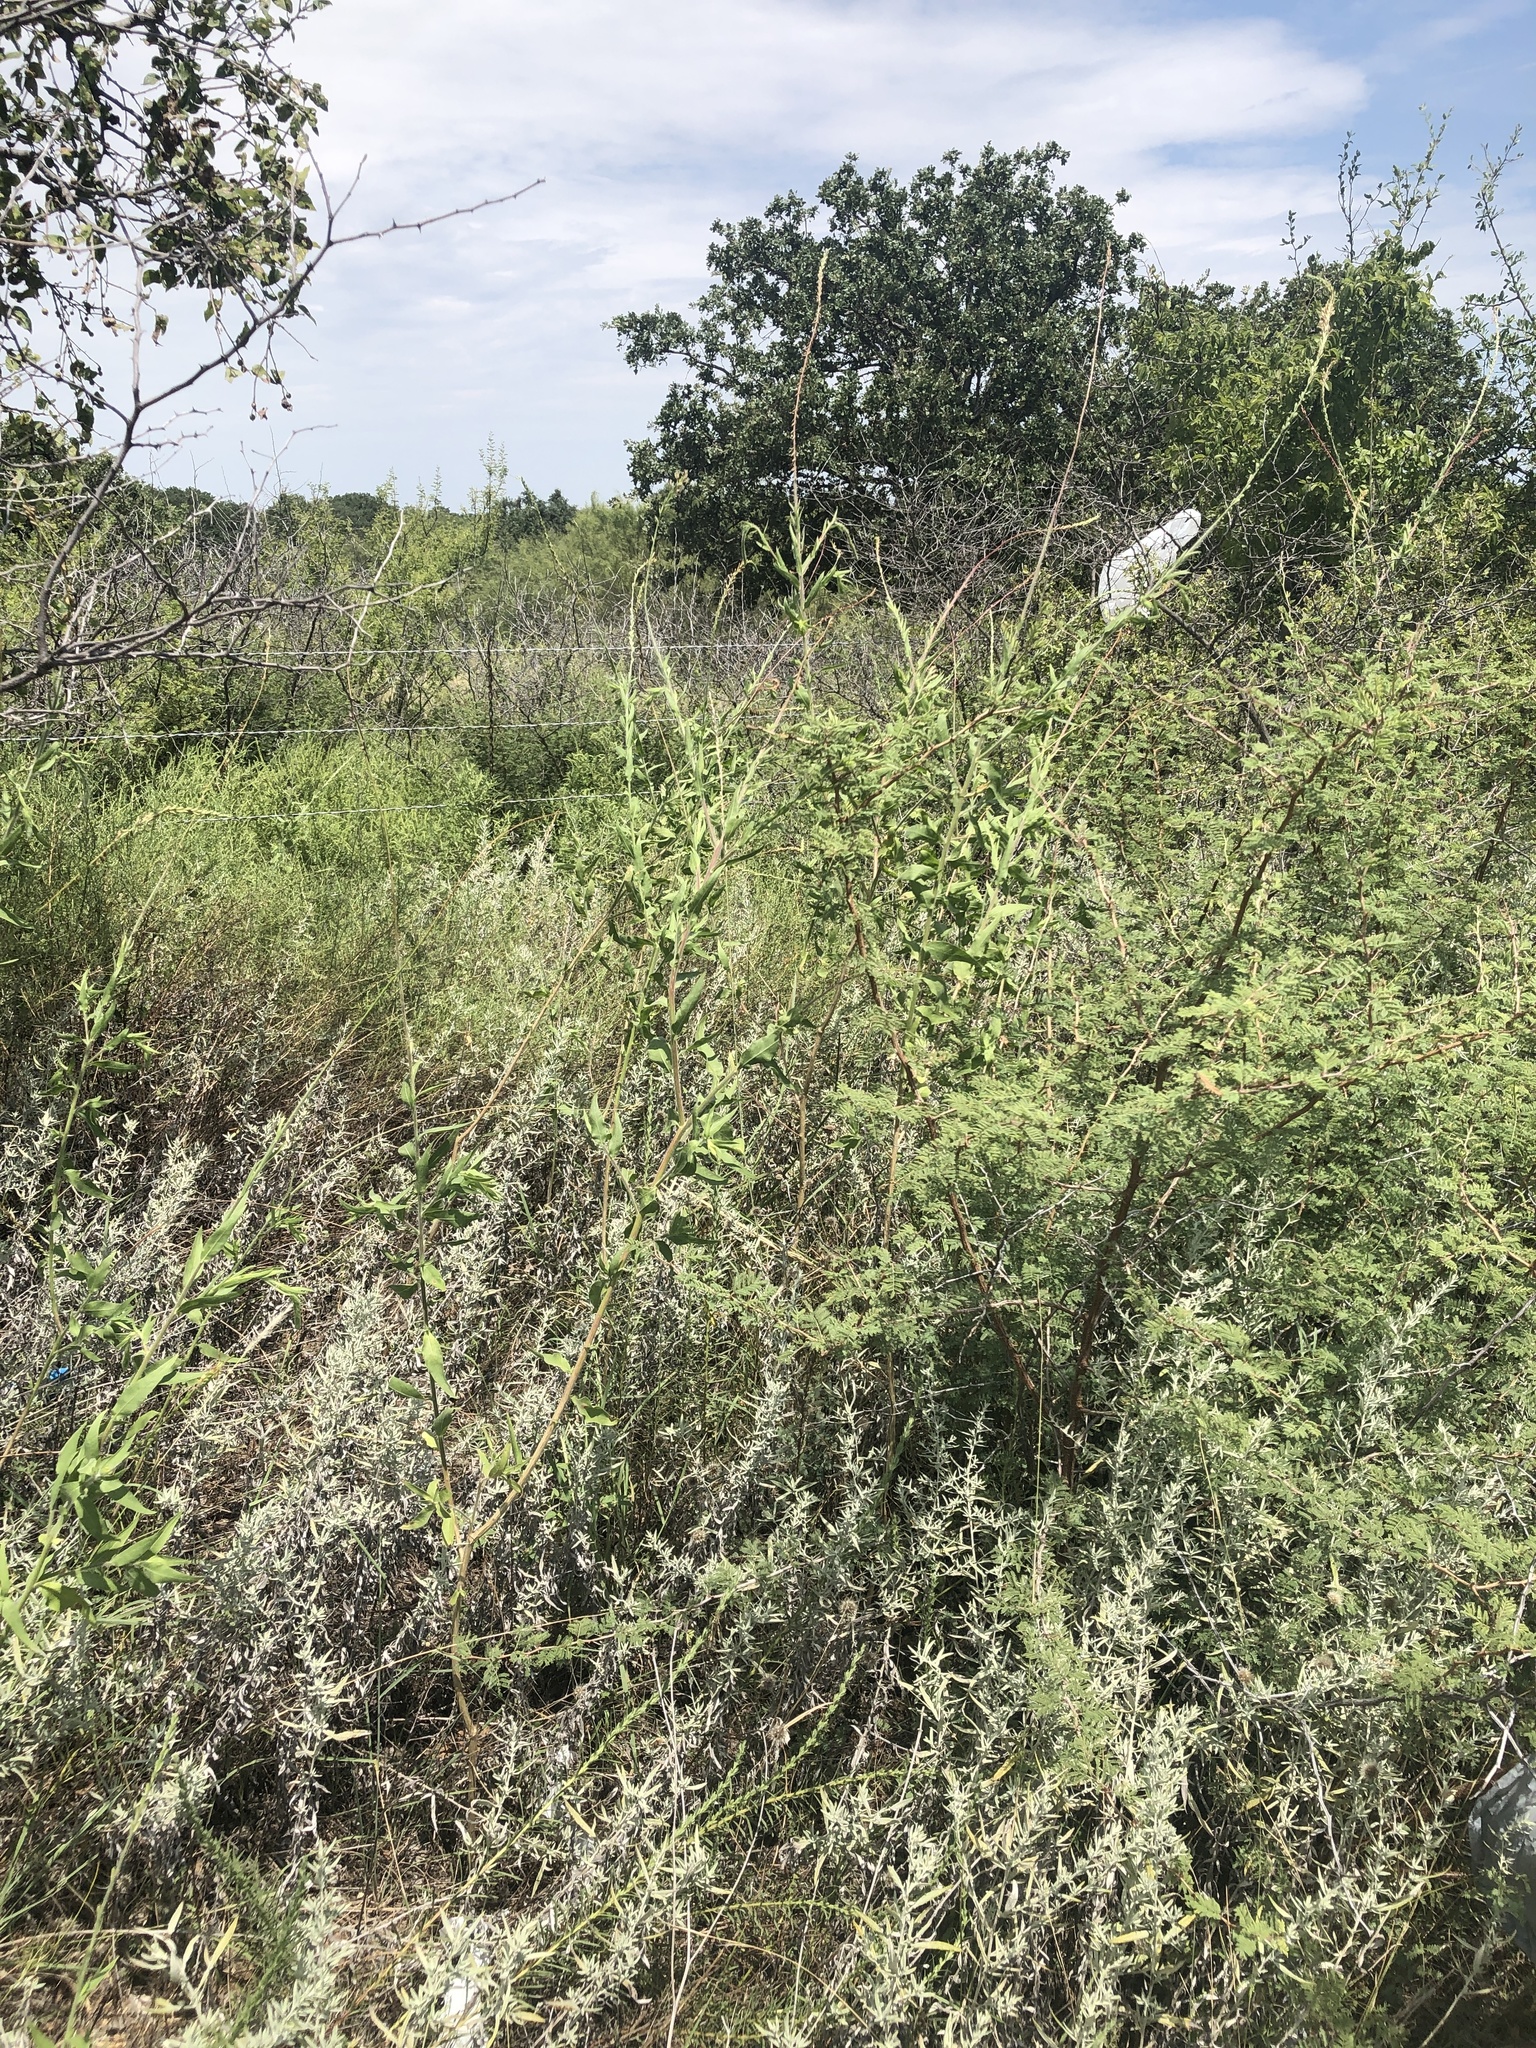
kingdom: Plantae
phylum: Tracheophyta
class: Magnoliopsida
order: Myrtales
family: Onagraceae
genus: Oenothera
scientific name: Oenothera curtiflora
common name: Velvetweed
